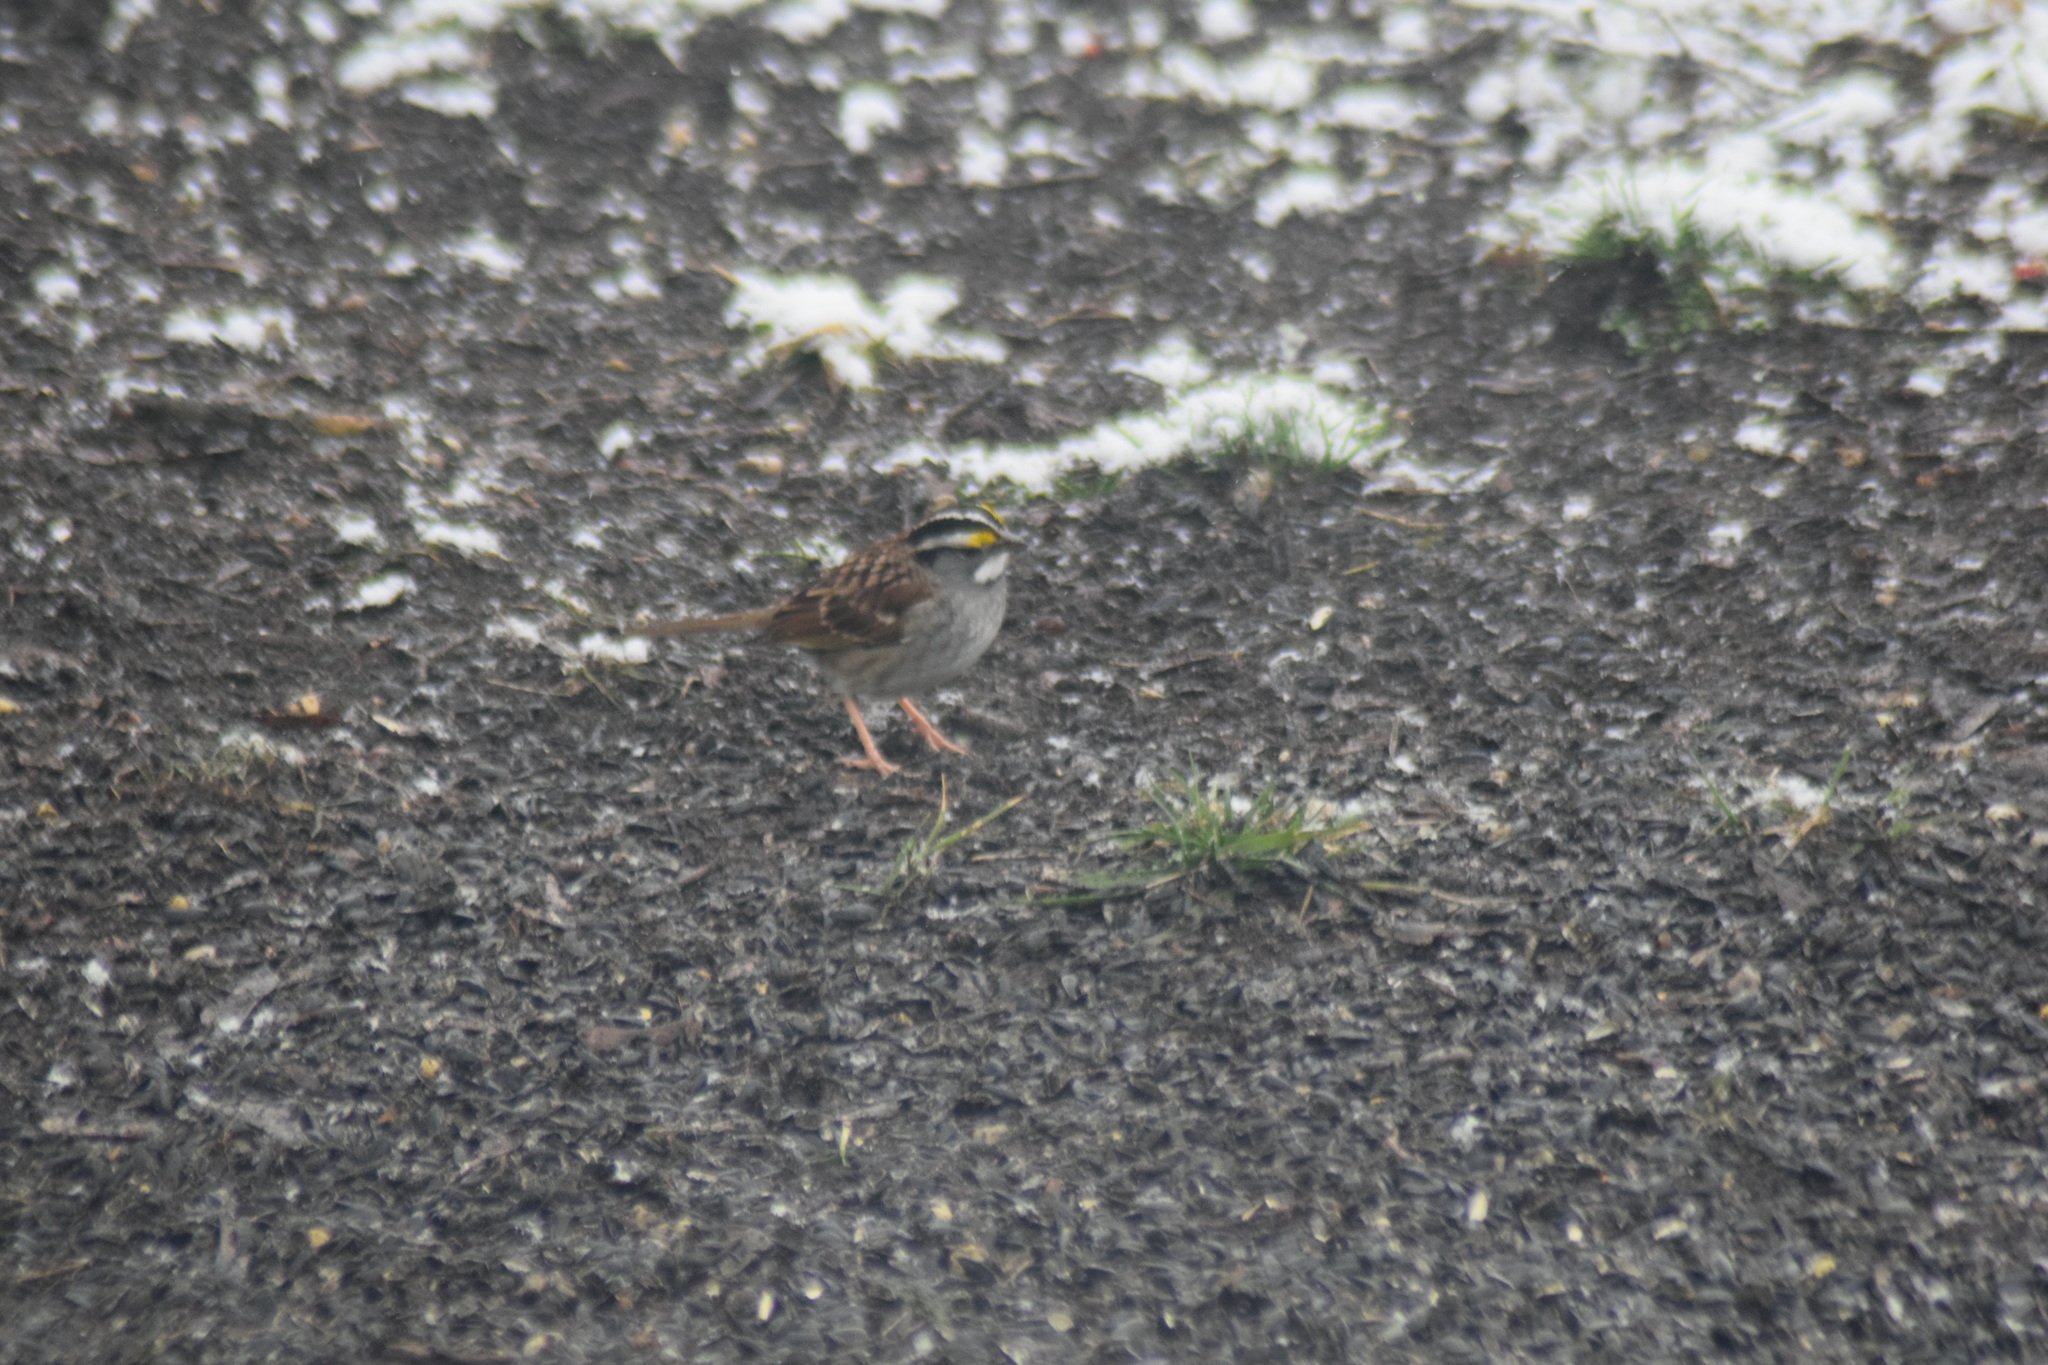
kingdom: Animalia
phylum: Chordata
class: Aves
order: Passeriformes
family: Passerellidae
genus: Zonotrichia
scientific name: Zonotrichia albicollis
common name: White-throated sparrow
